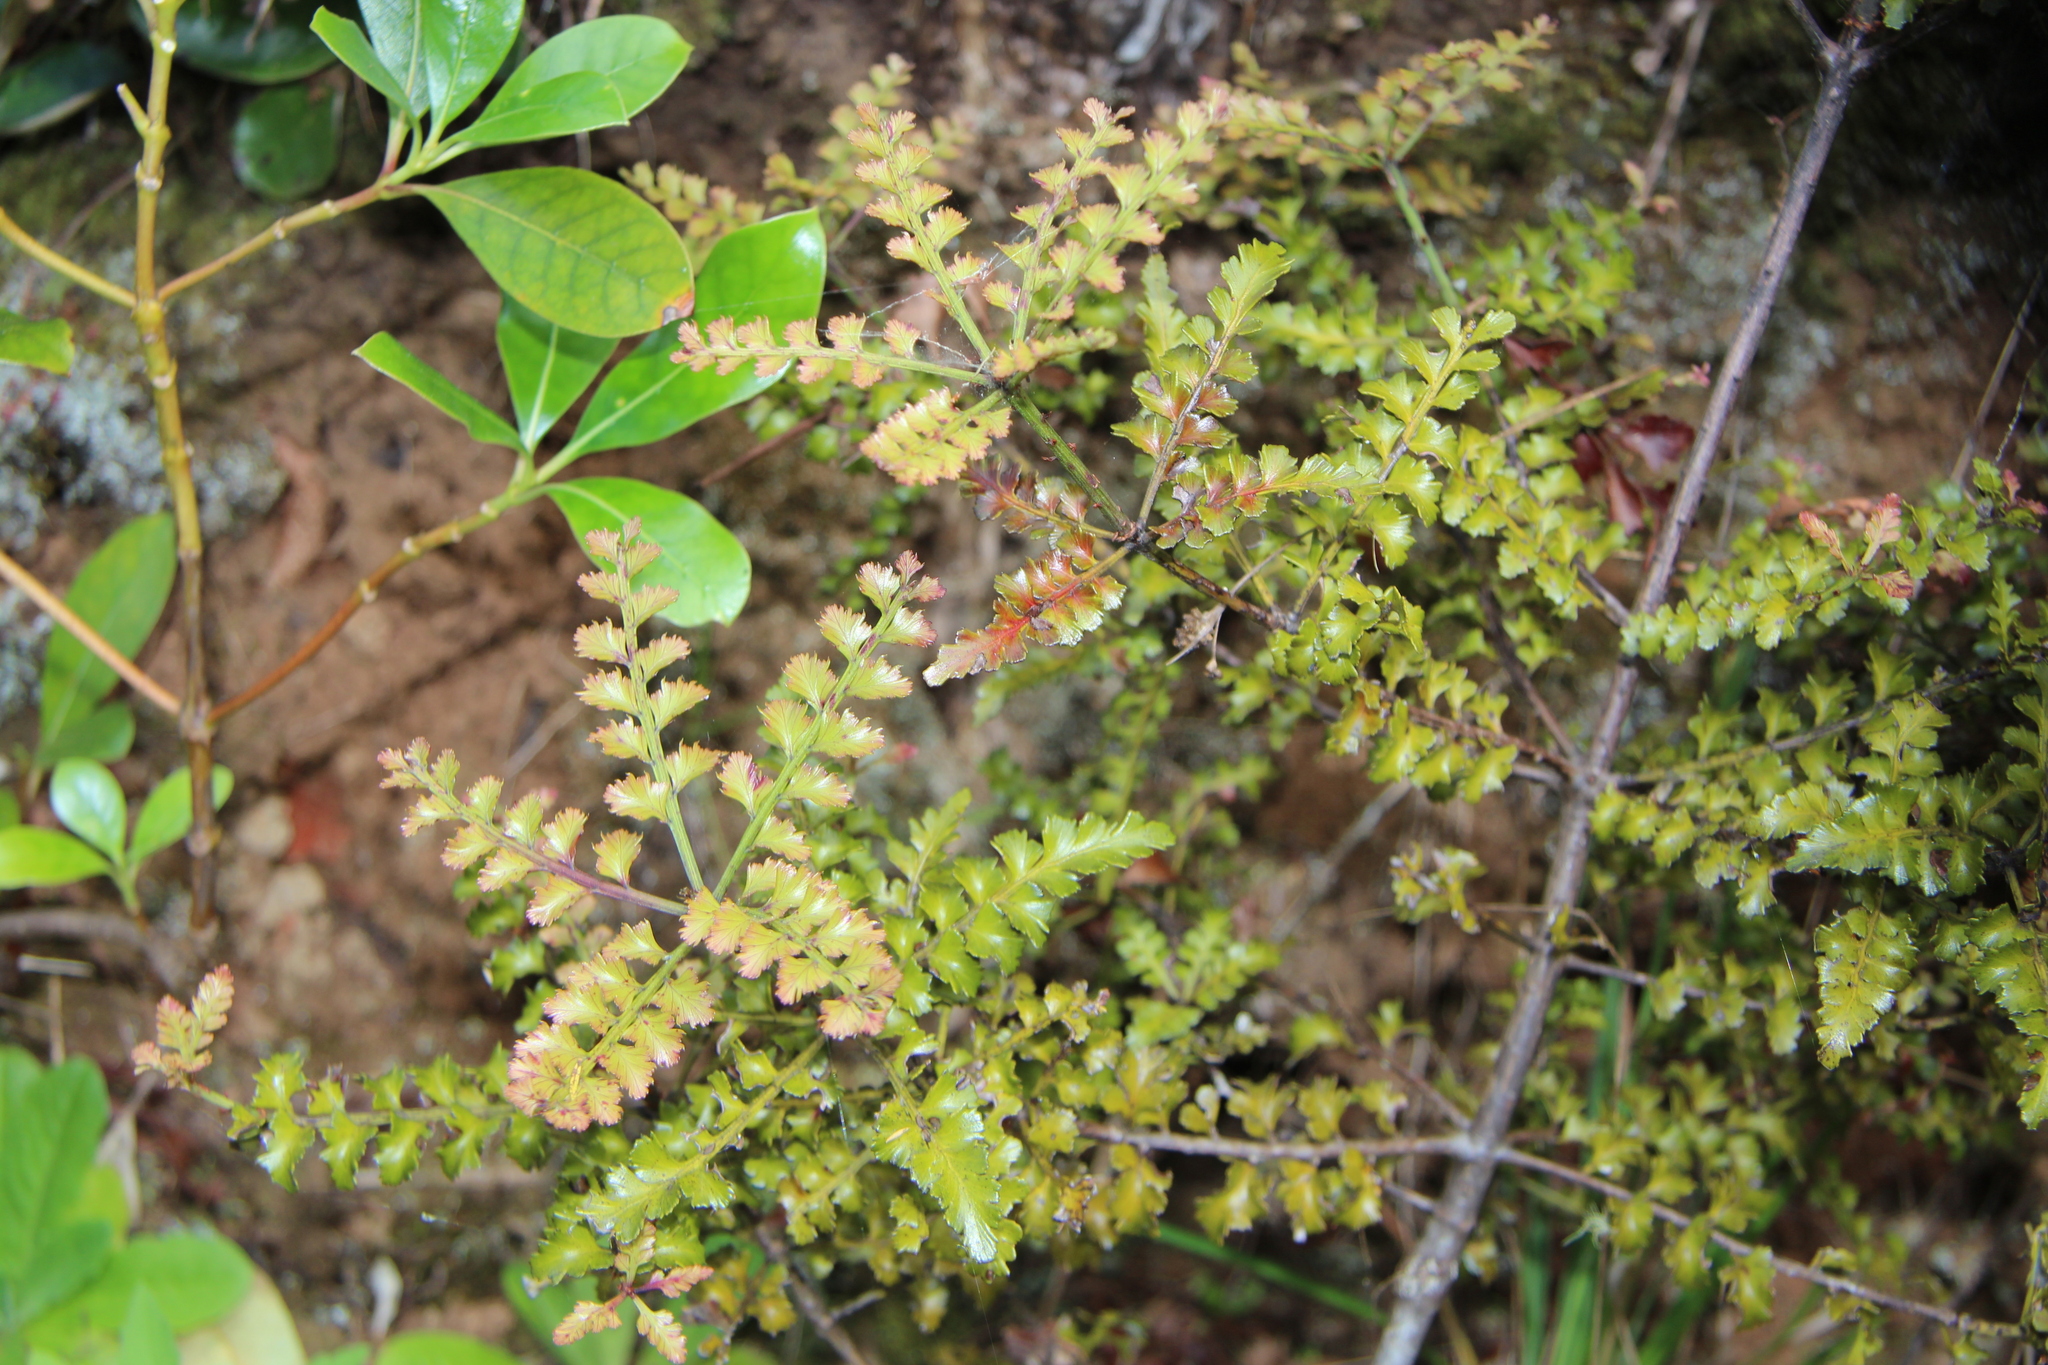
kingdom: Plantae
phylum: Tracheophyta
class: Pinopsida
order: Pinales
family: Phyllocladaceae
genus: Phyllocladus
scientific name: Phyllocladus trichomanoides
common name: Celery pine
